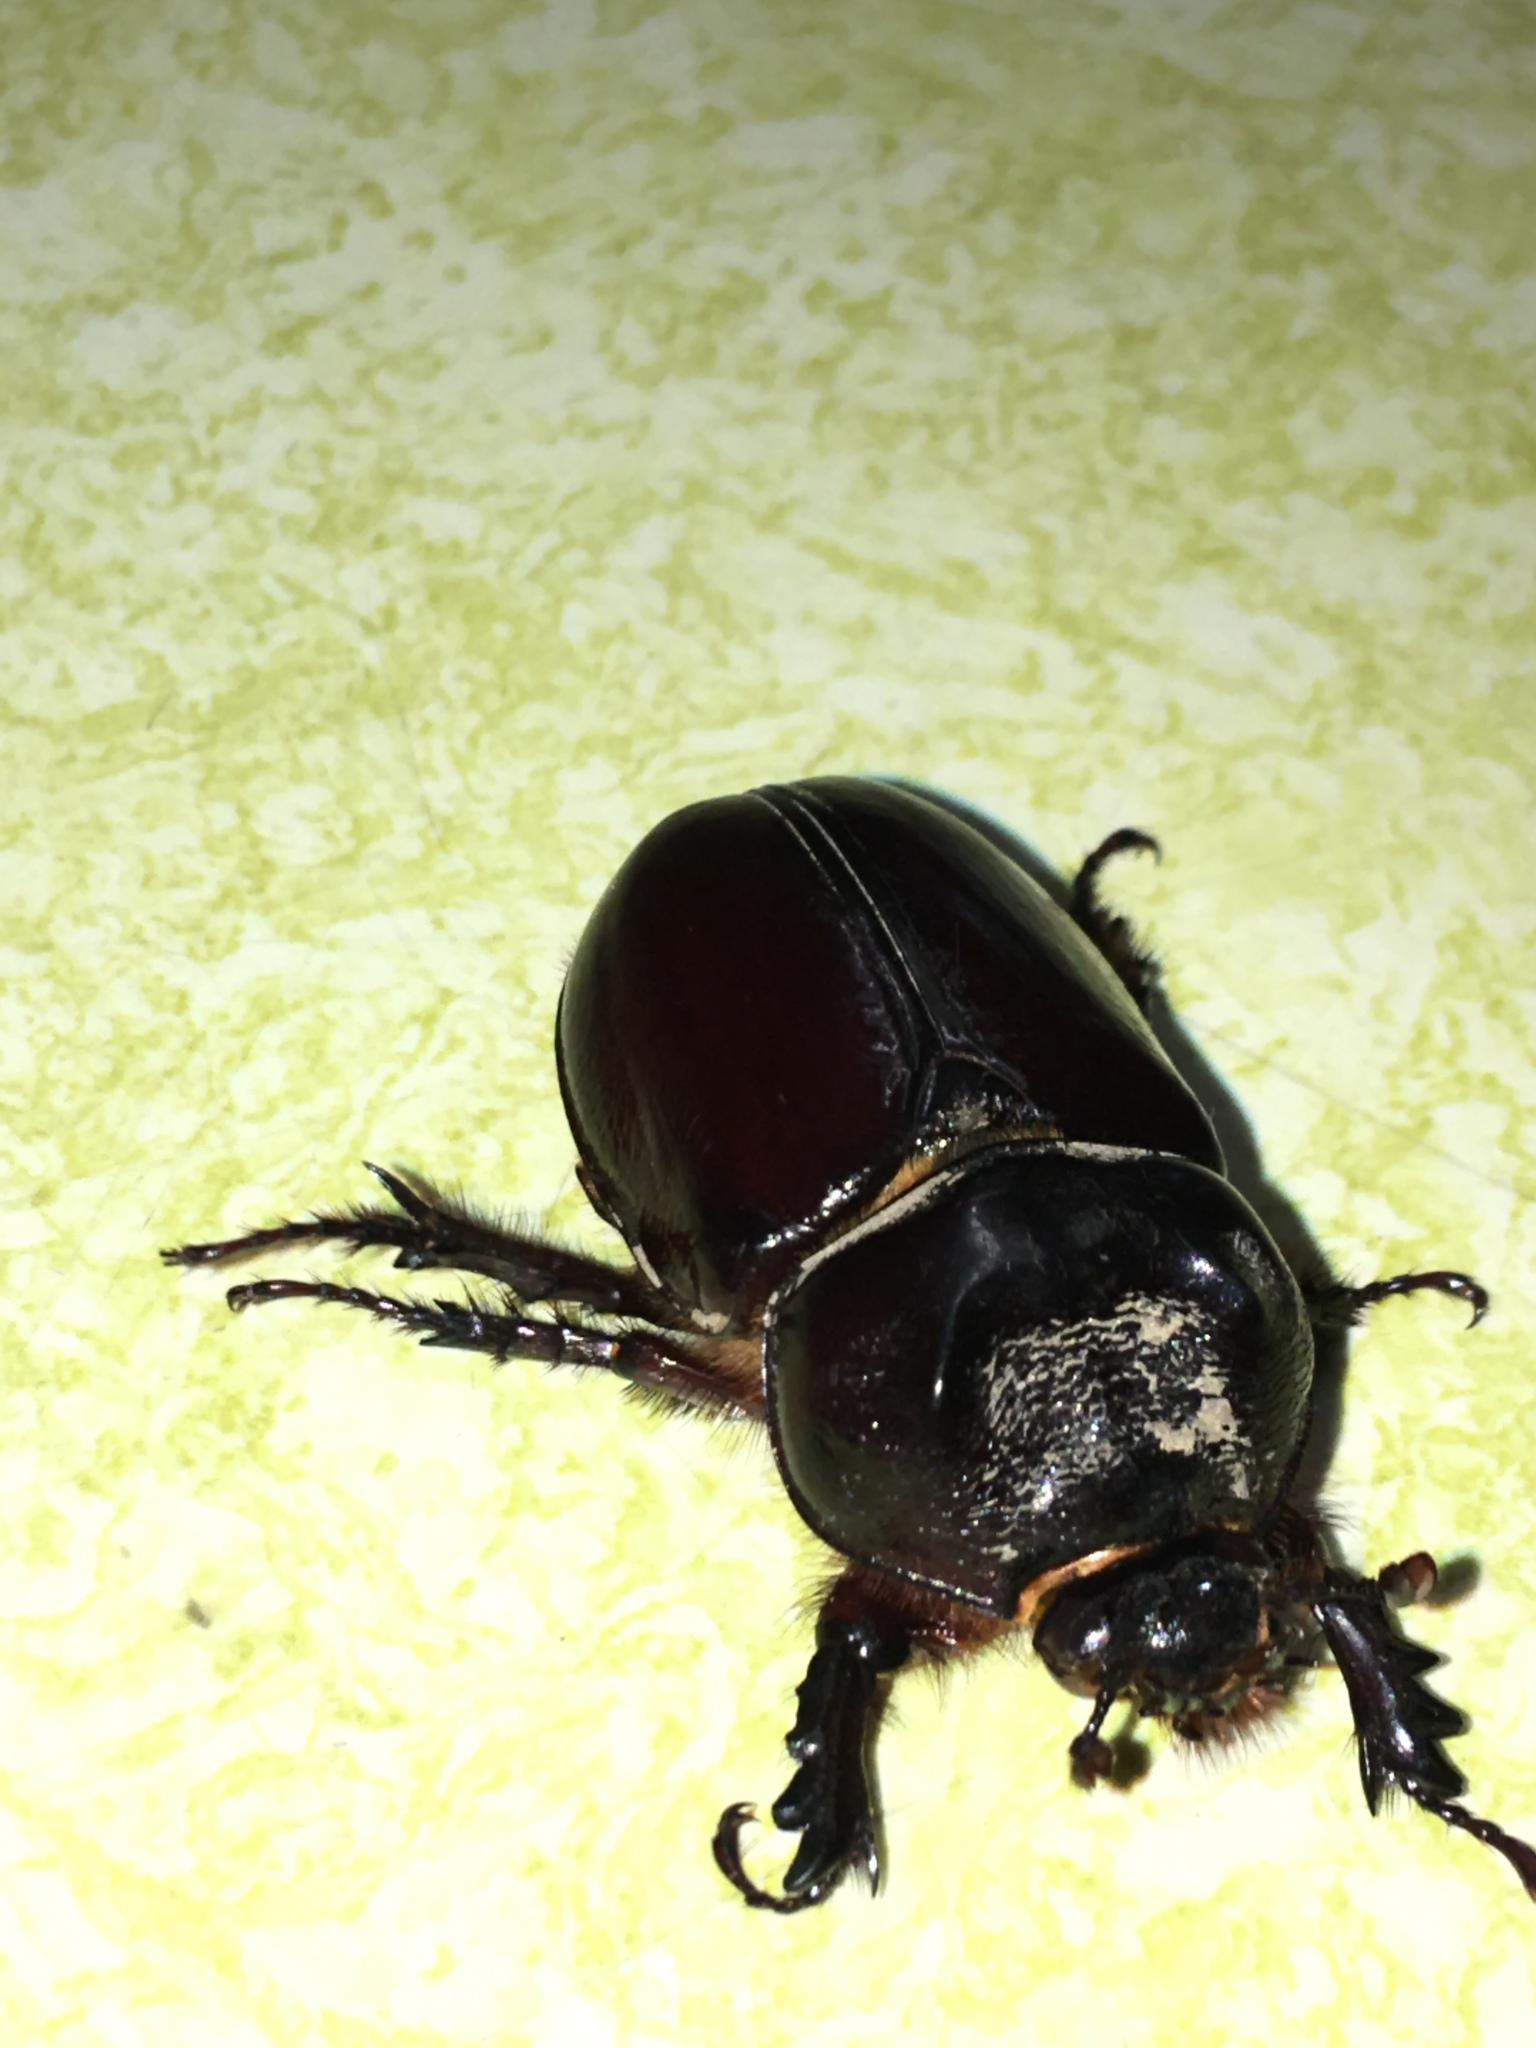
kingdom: Animalia
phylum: Arthropoda
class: Insecta
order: Coleoptera
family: Scarabaeidae
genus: Strategus
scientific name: Strategus aloeus
